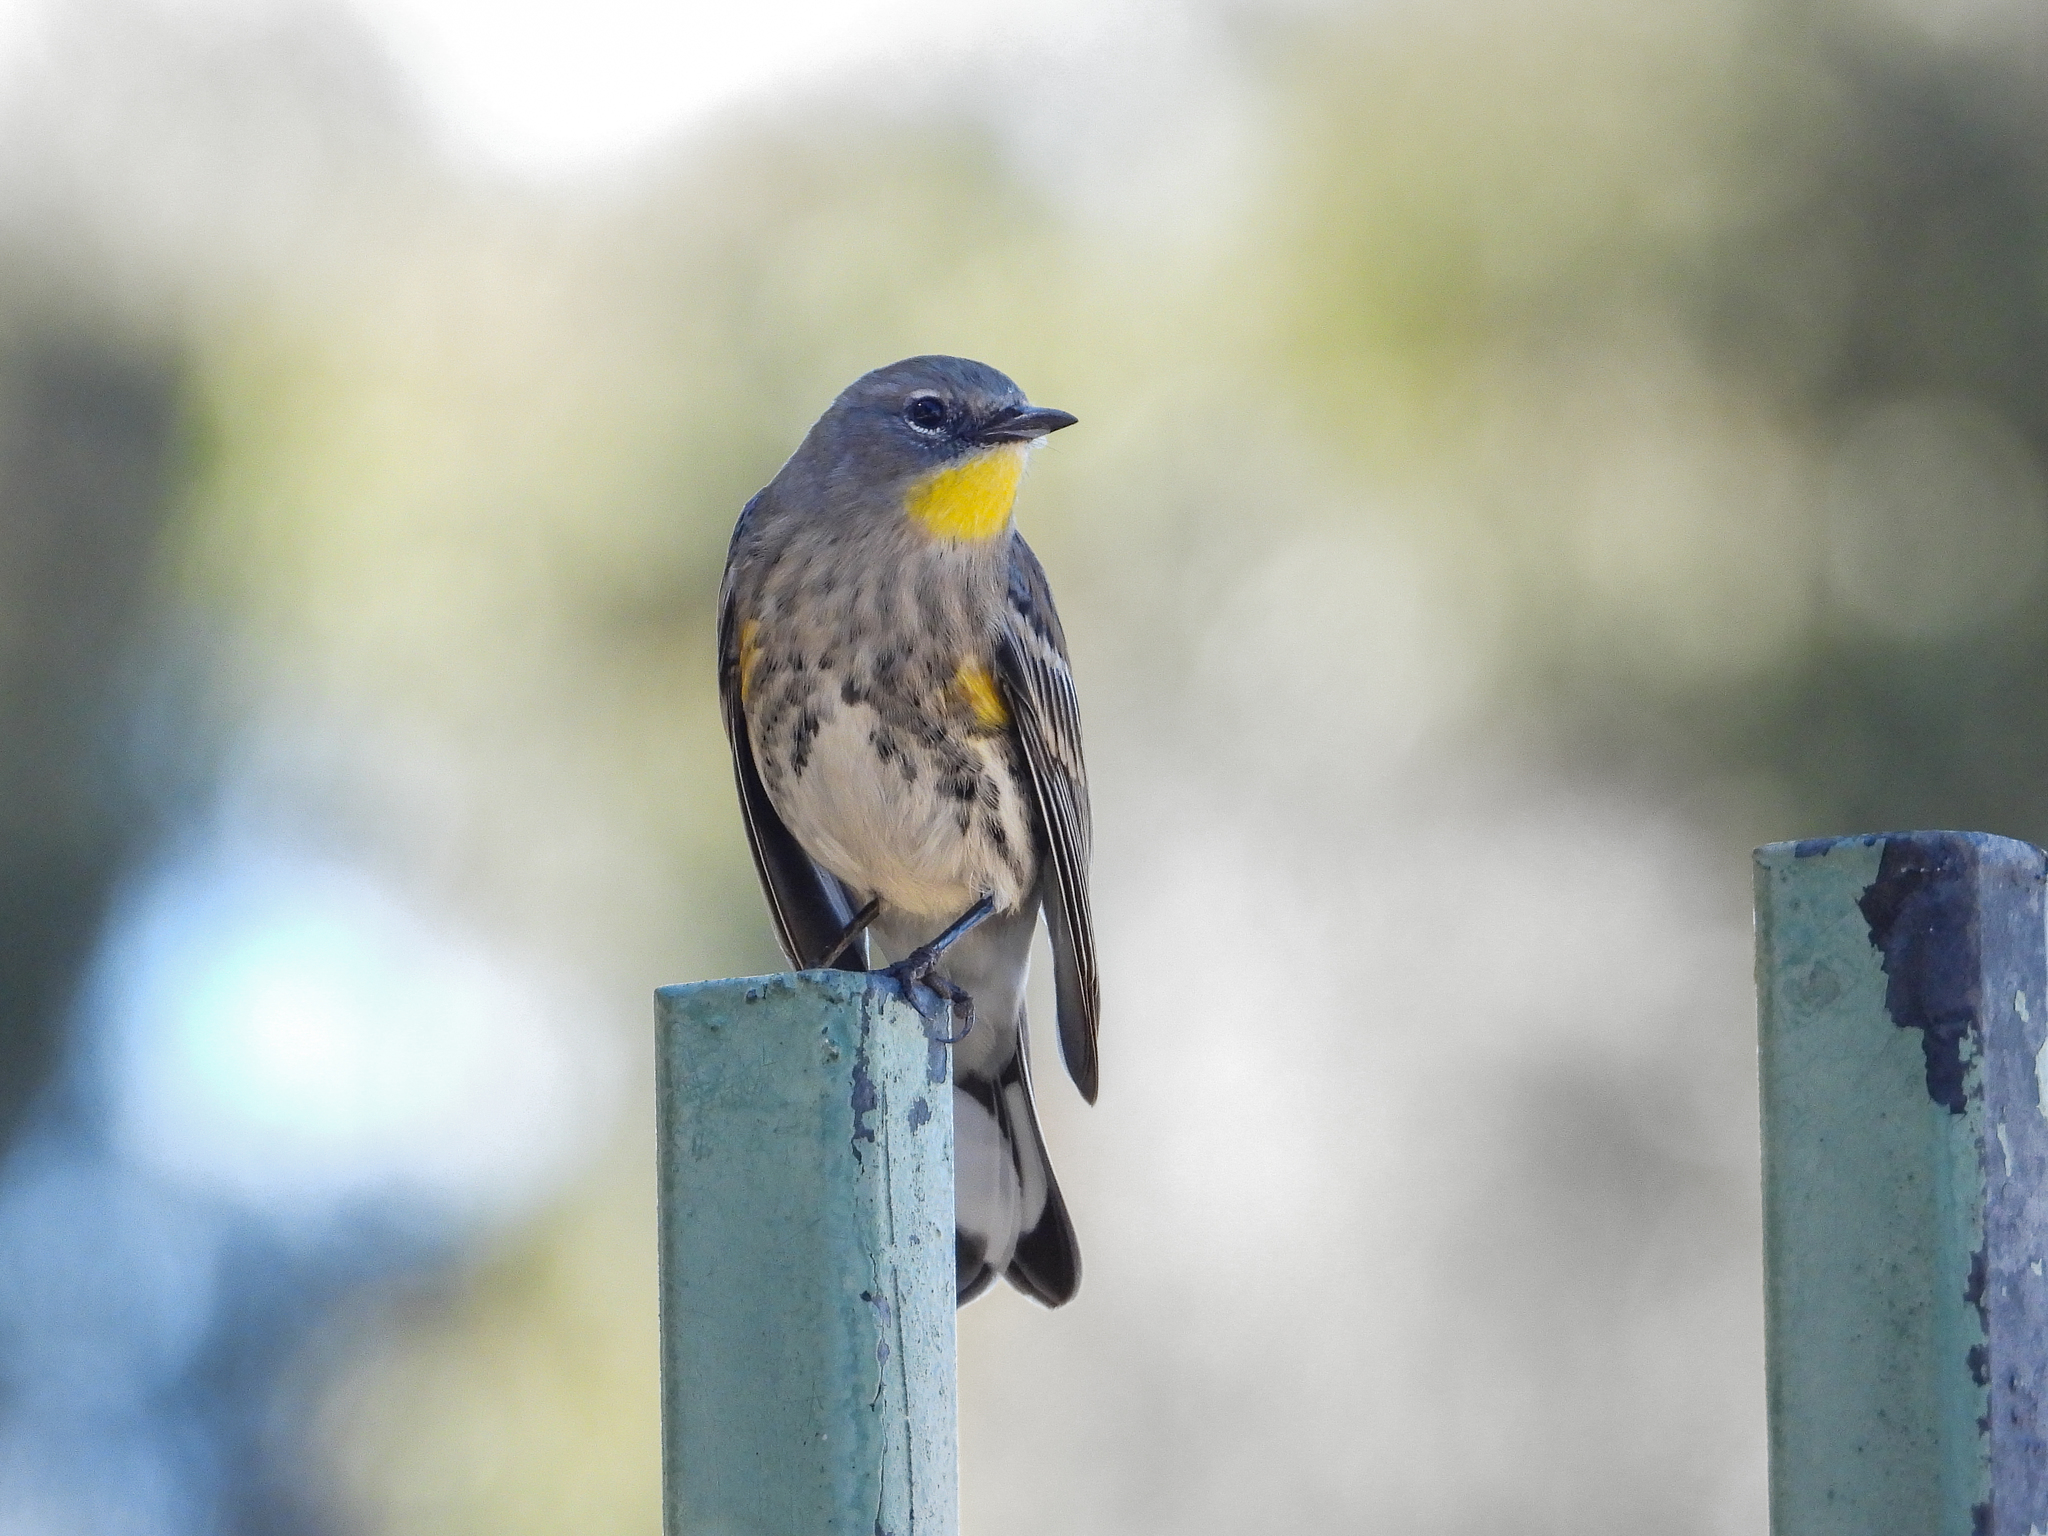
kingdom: Animalia
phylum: Chordata
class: Aves
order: Passeriformes
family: Parulidae
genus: Setophaga
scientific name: Setophaga coronata
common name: Myrtle warbler
